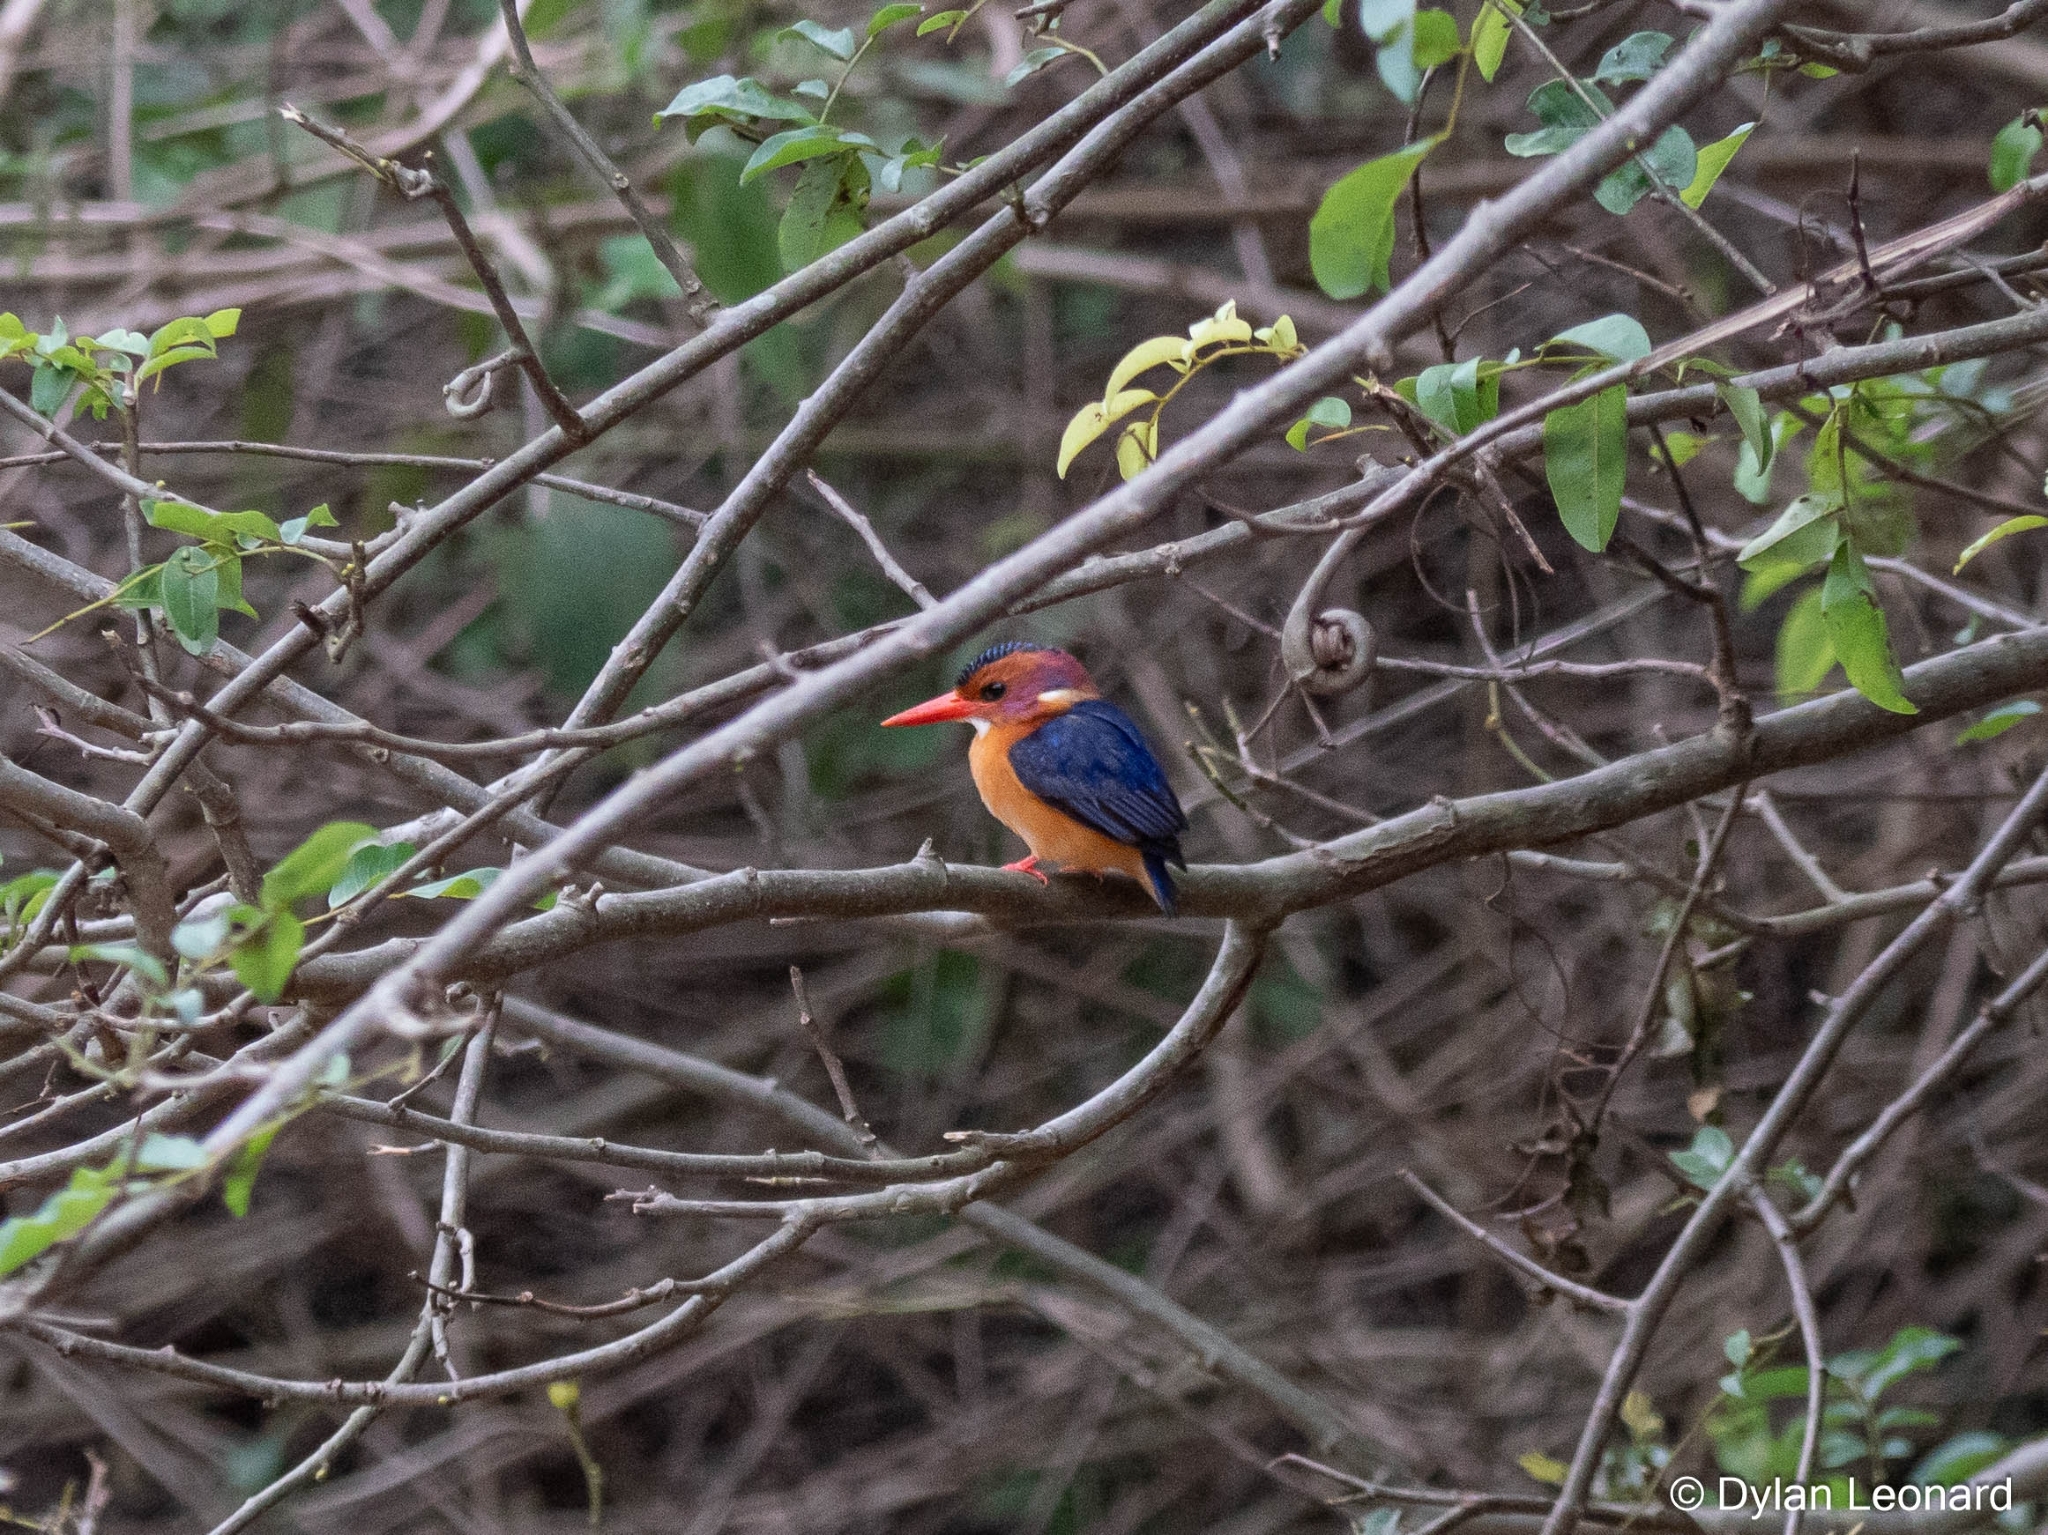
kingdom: Animalia
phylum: Chordata
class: Aves
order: Coraciiformes
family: Alcedinidae
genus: Ispidina
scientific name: Ispidina picta
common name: African pygmy-kingfisher
